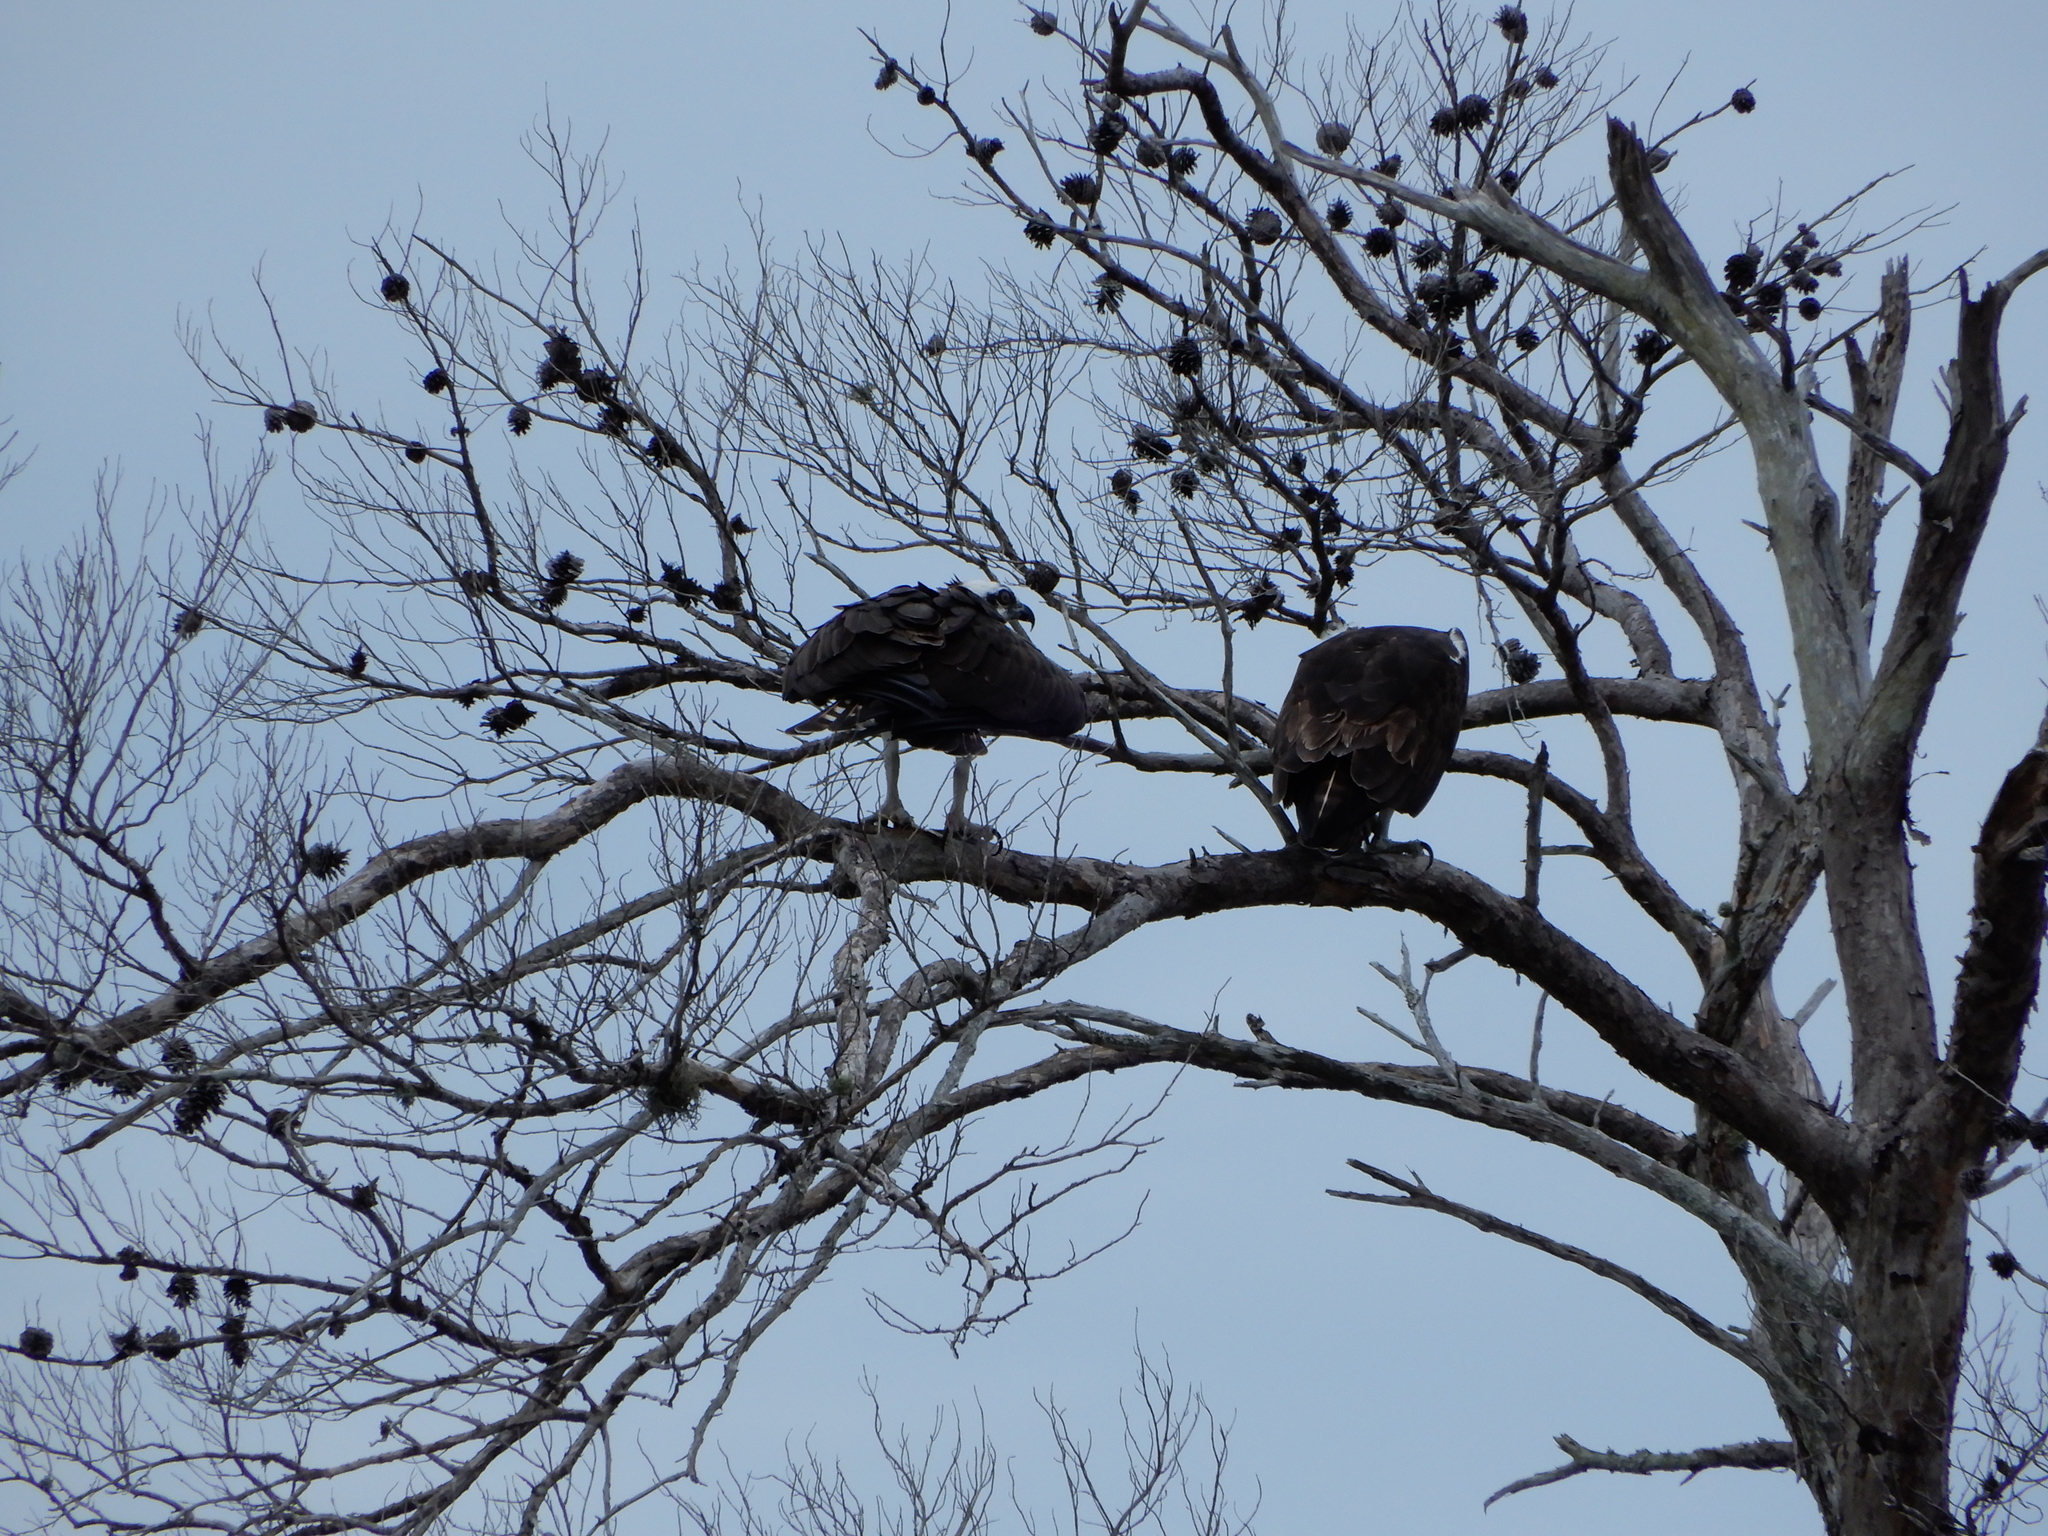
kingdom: Animalia
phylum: Chordata
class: Aves
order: Accipitriformes
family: Pandionidae
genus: Pandion
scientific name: Pandion haliaetus
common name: Osprey
